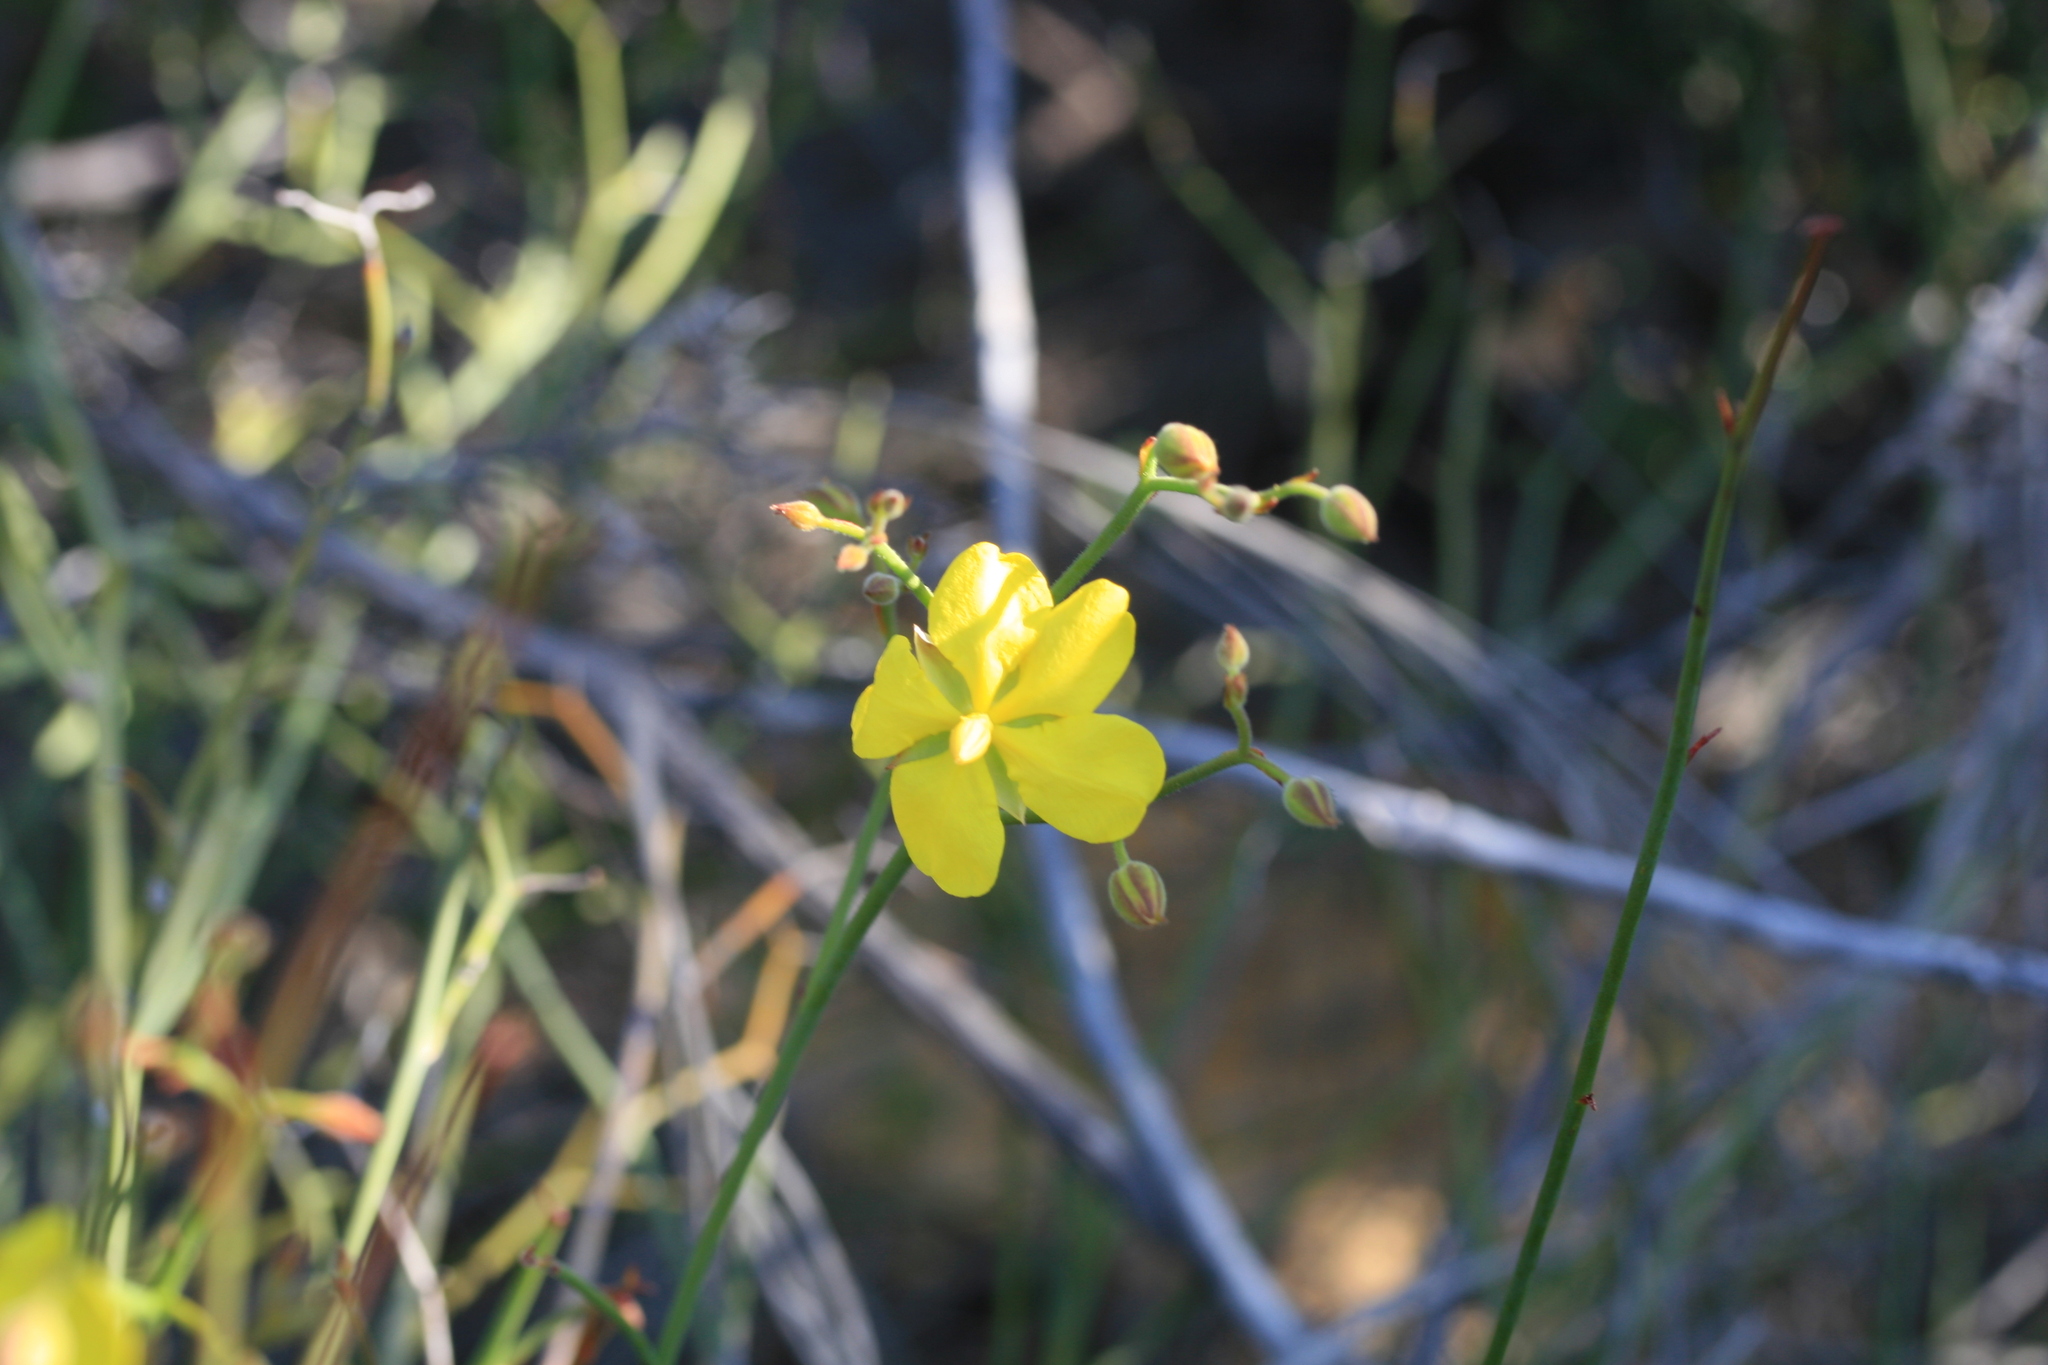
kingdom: Plantae
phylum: Tracheophyta
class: Magnoliopsida
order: Dilleniales
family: Dilleniaceae
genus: Hibbertia
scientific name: Hibbertia conspicua
